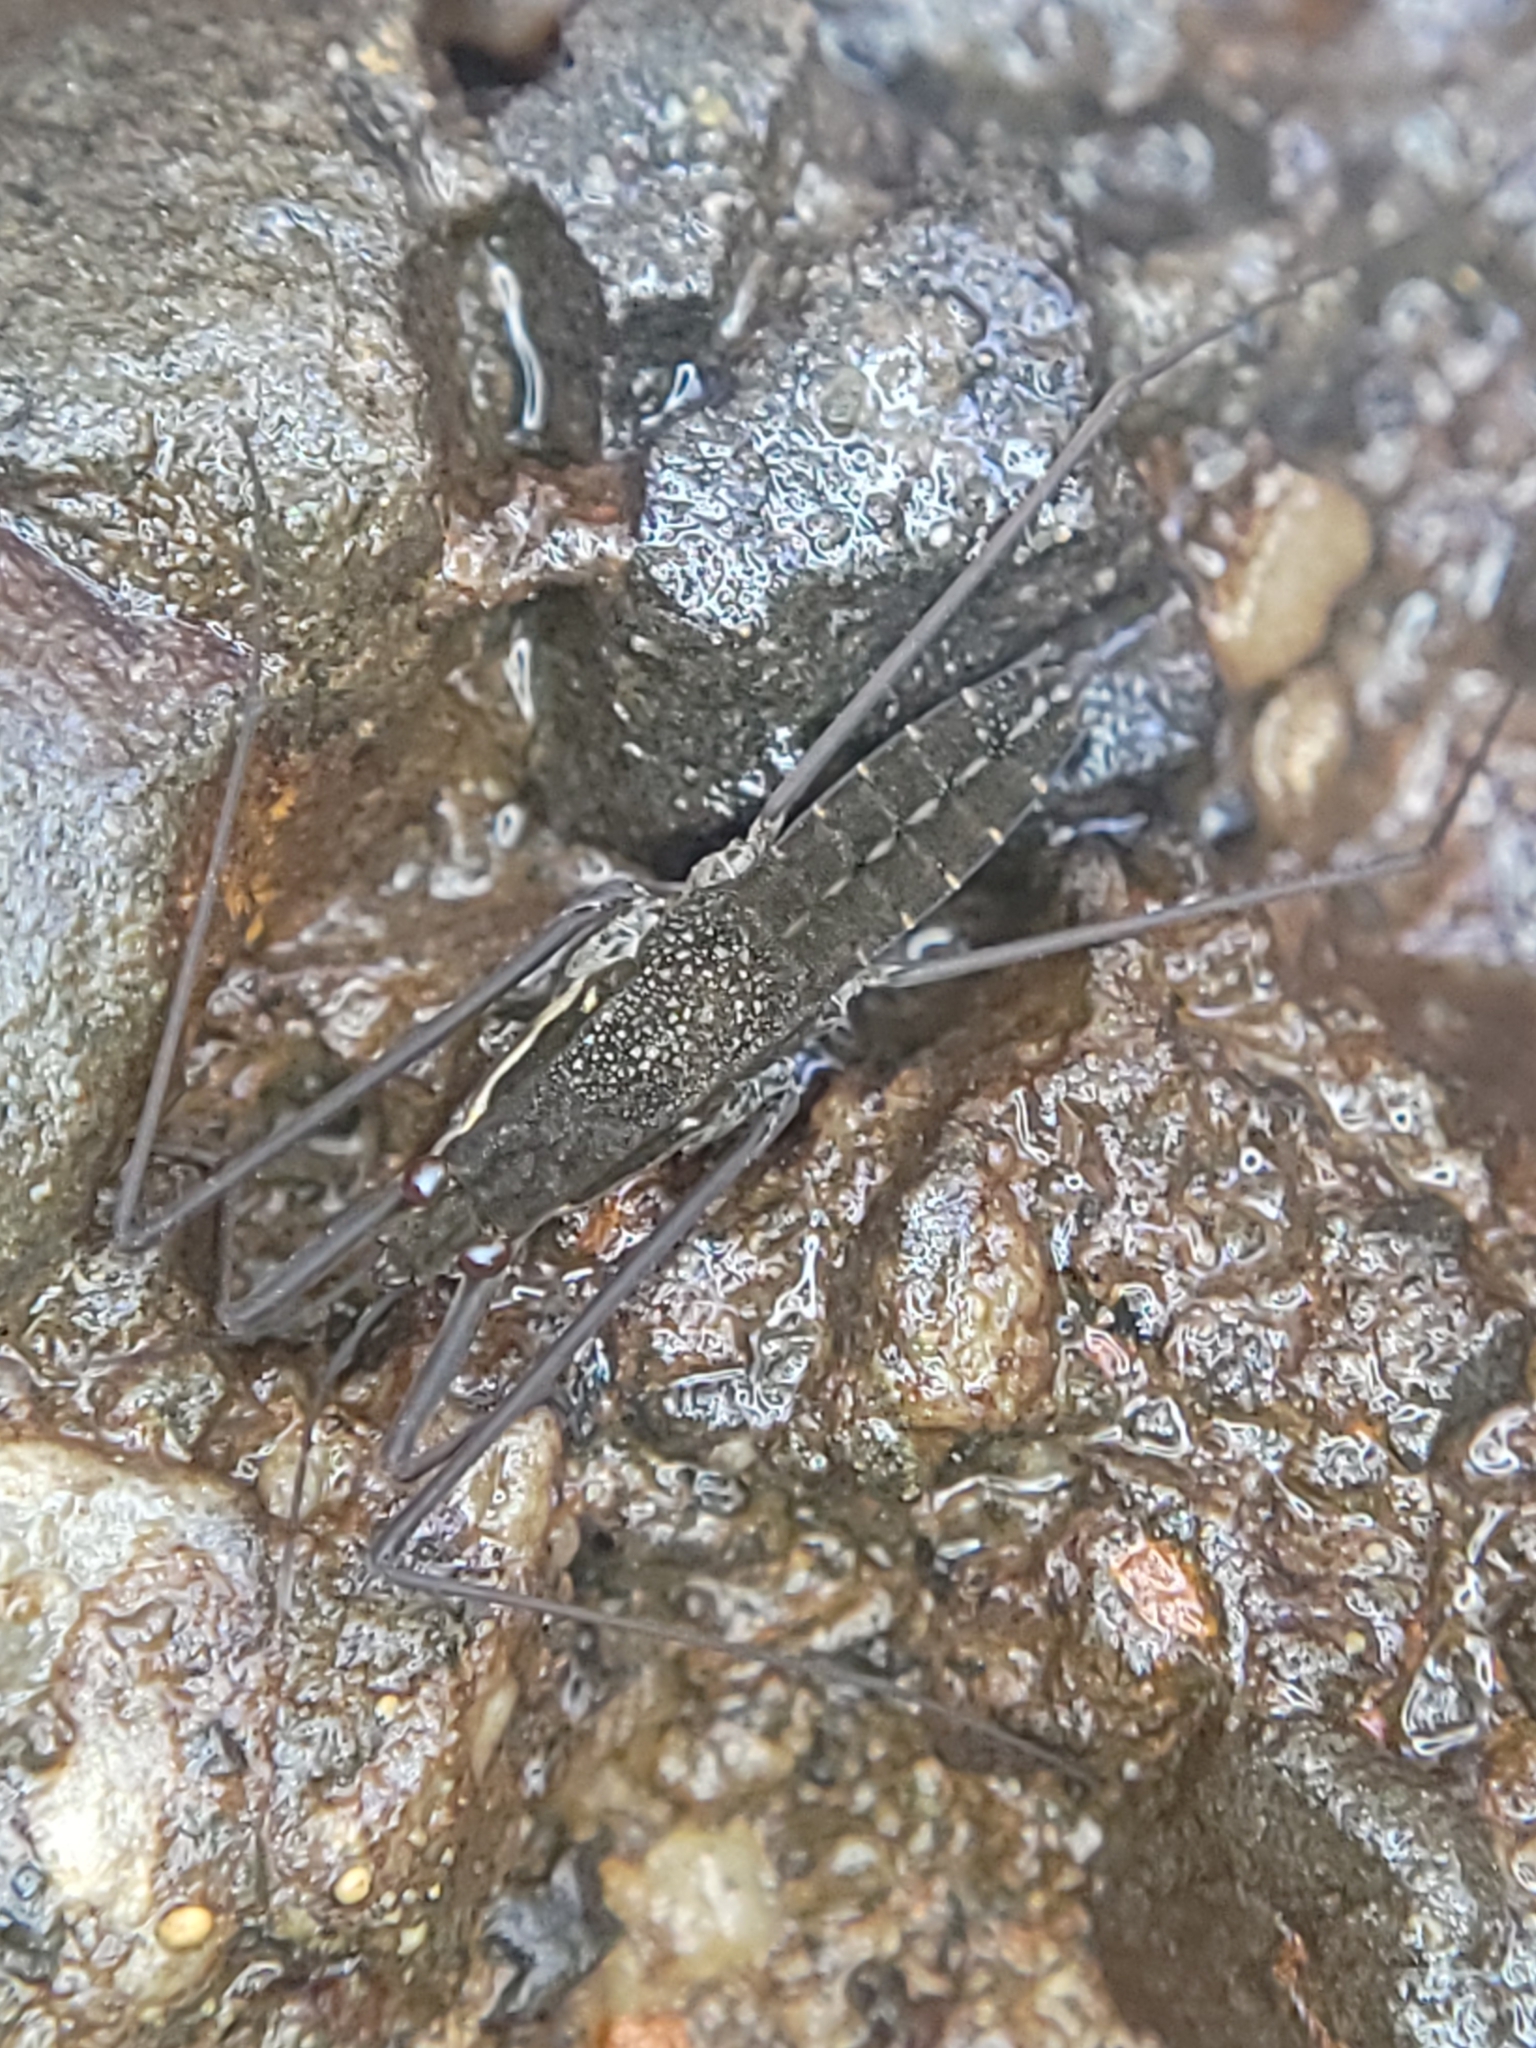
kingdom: Animalia
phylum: Arthropoda
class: Insecta
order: Hemiptera
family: Gerridae
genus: Aquarius
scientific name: Aquarius remigis
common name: Common water strider
